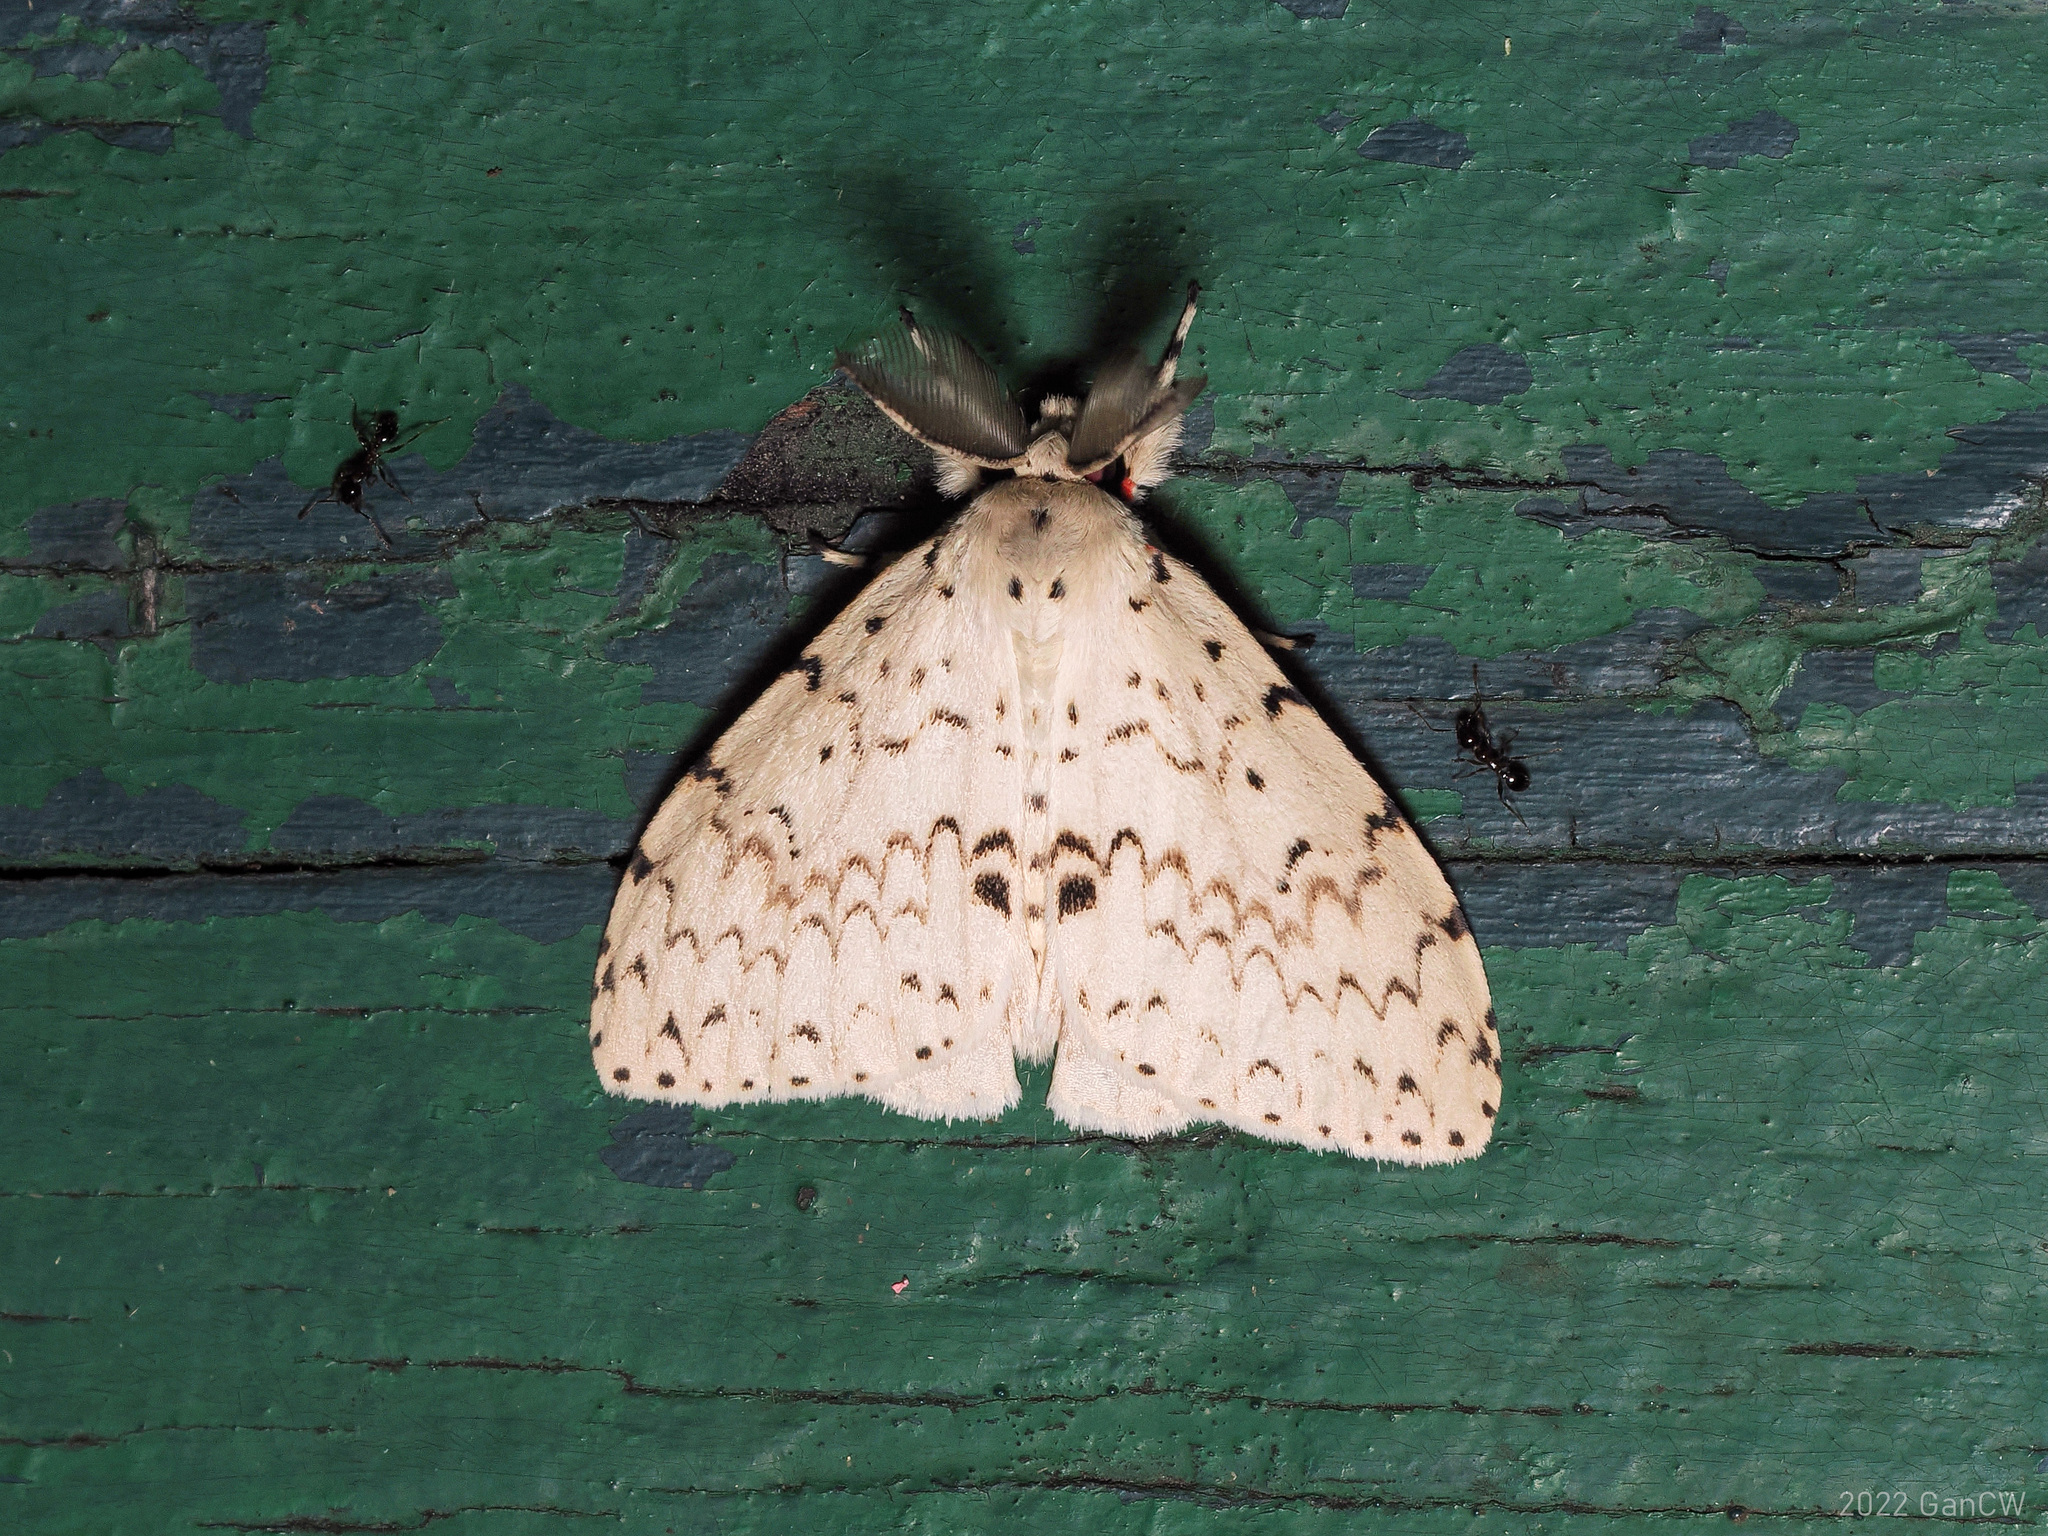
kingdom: Animalia
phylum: Arthropoda
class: Insecta
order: Lepidoptera
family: Erebidae
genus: Lymantria
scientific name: Lymantria ganara
